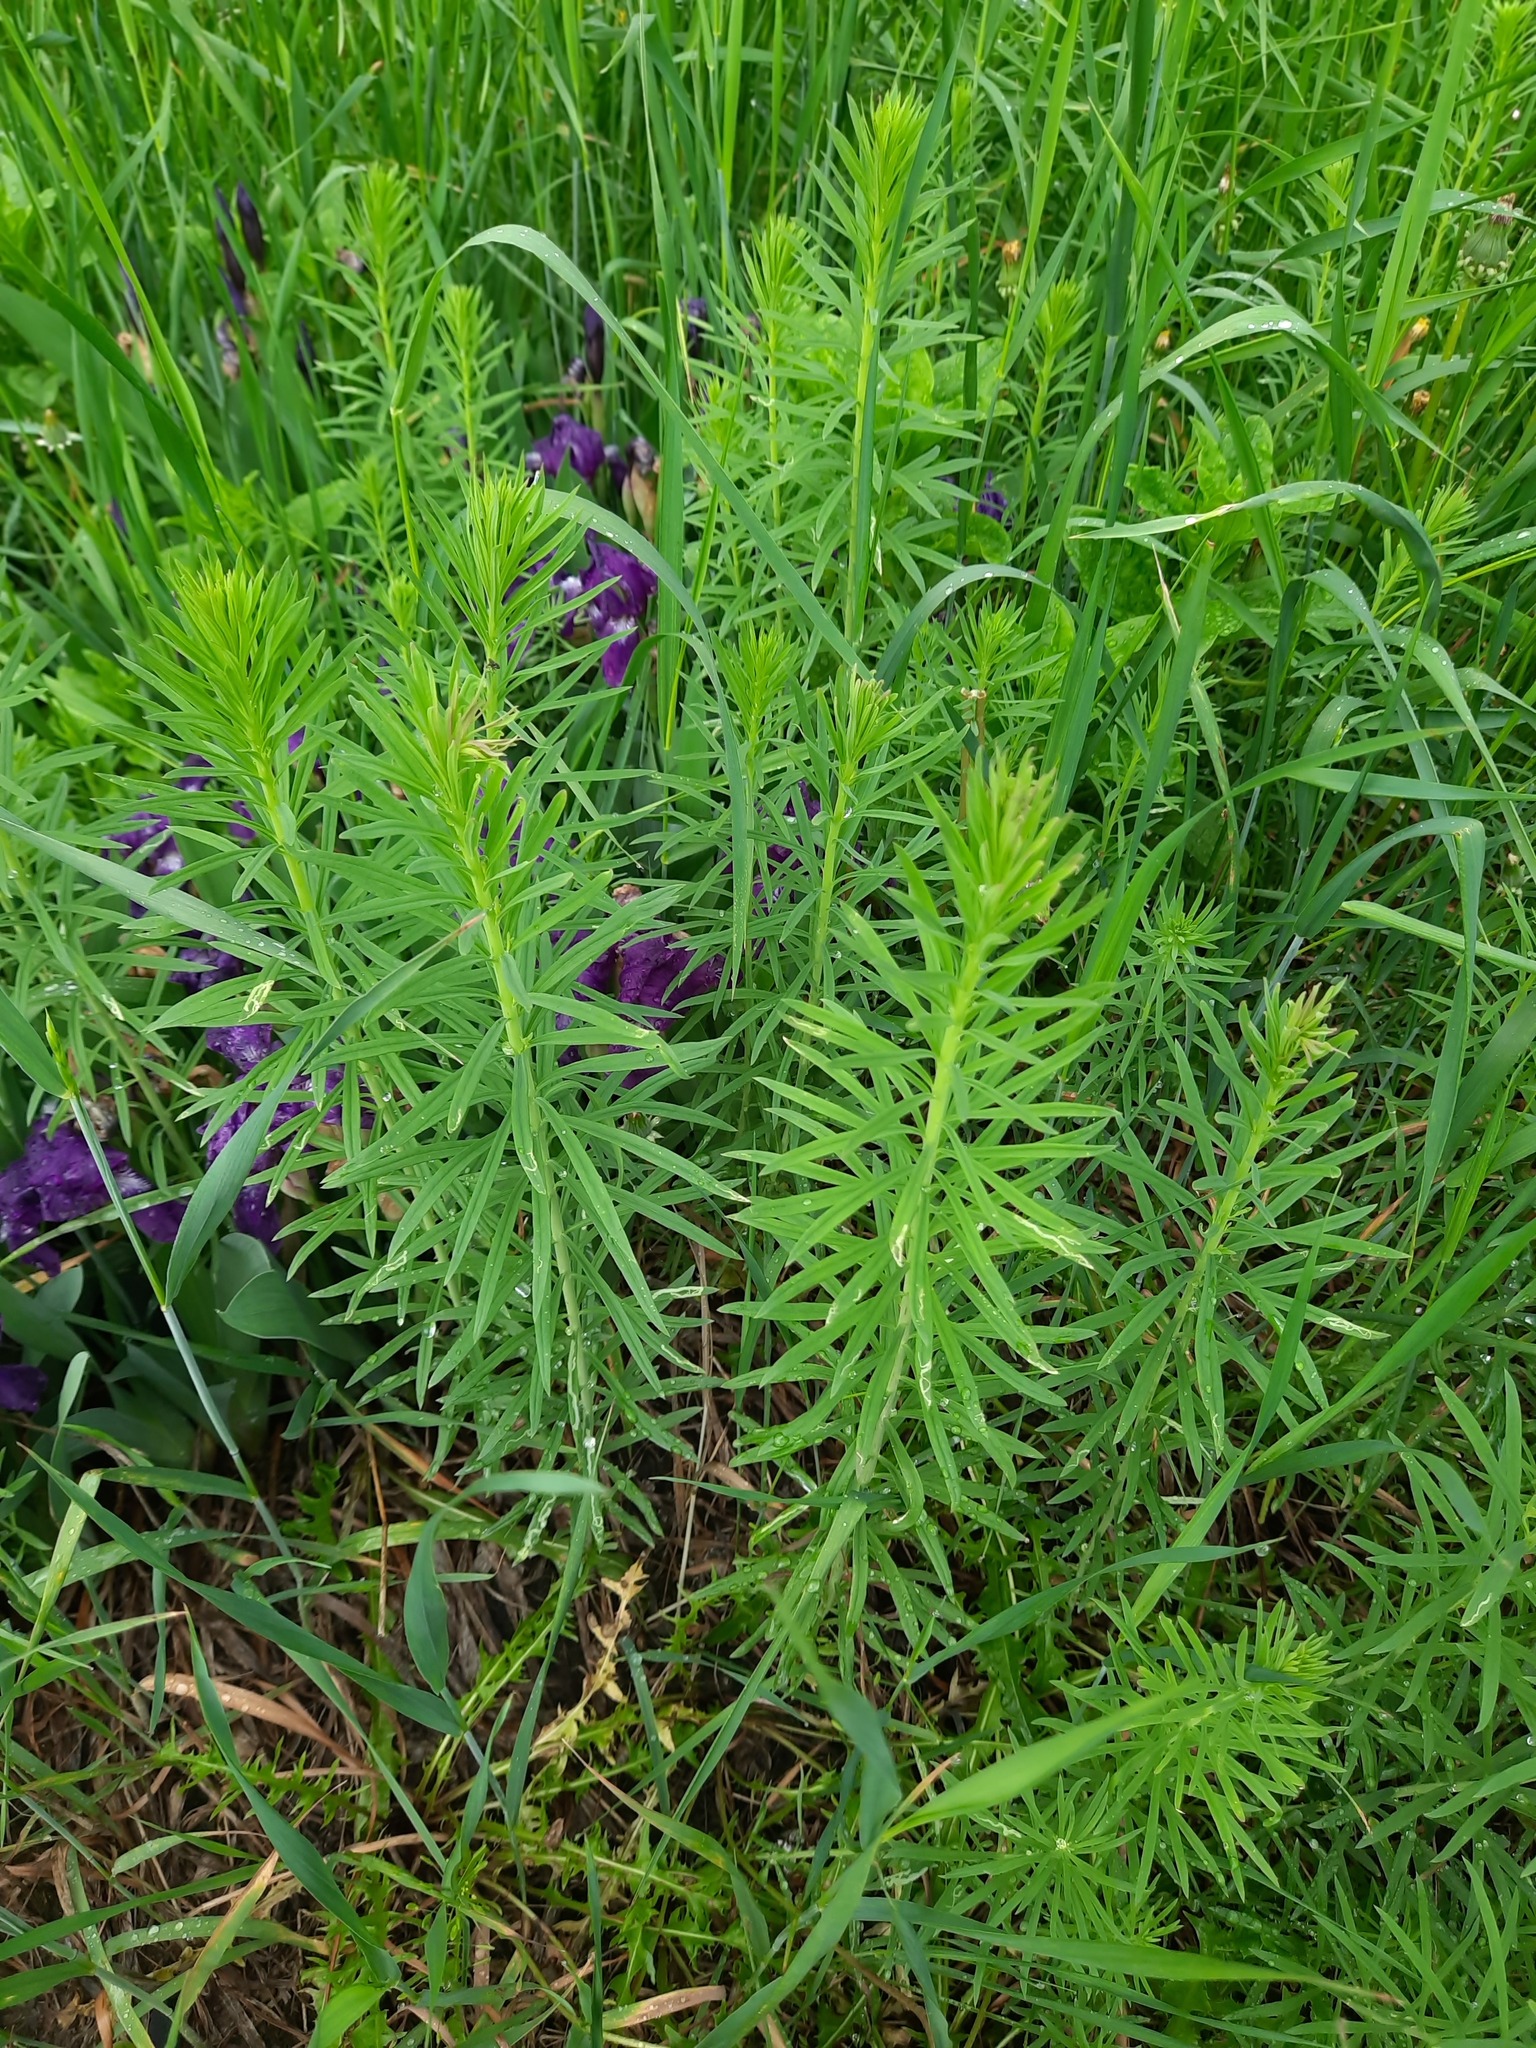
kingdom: Plantae
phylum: Tracheophyta
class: Magnoliopsida
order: Lamiales
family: Plantaginaceae
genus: Linaria
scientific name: Linaria vulgaris
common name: Butter and eggs
